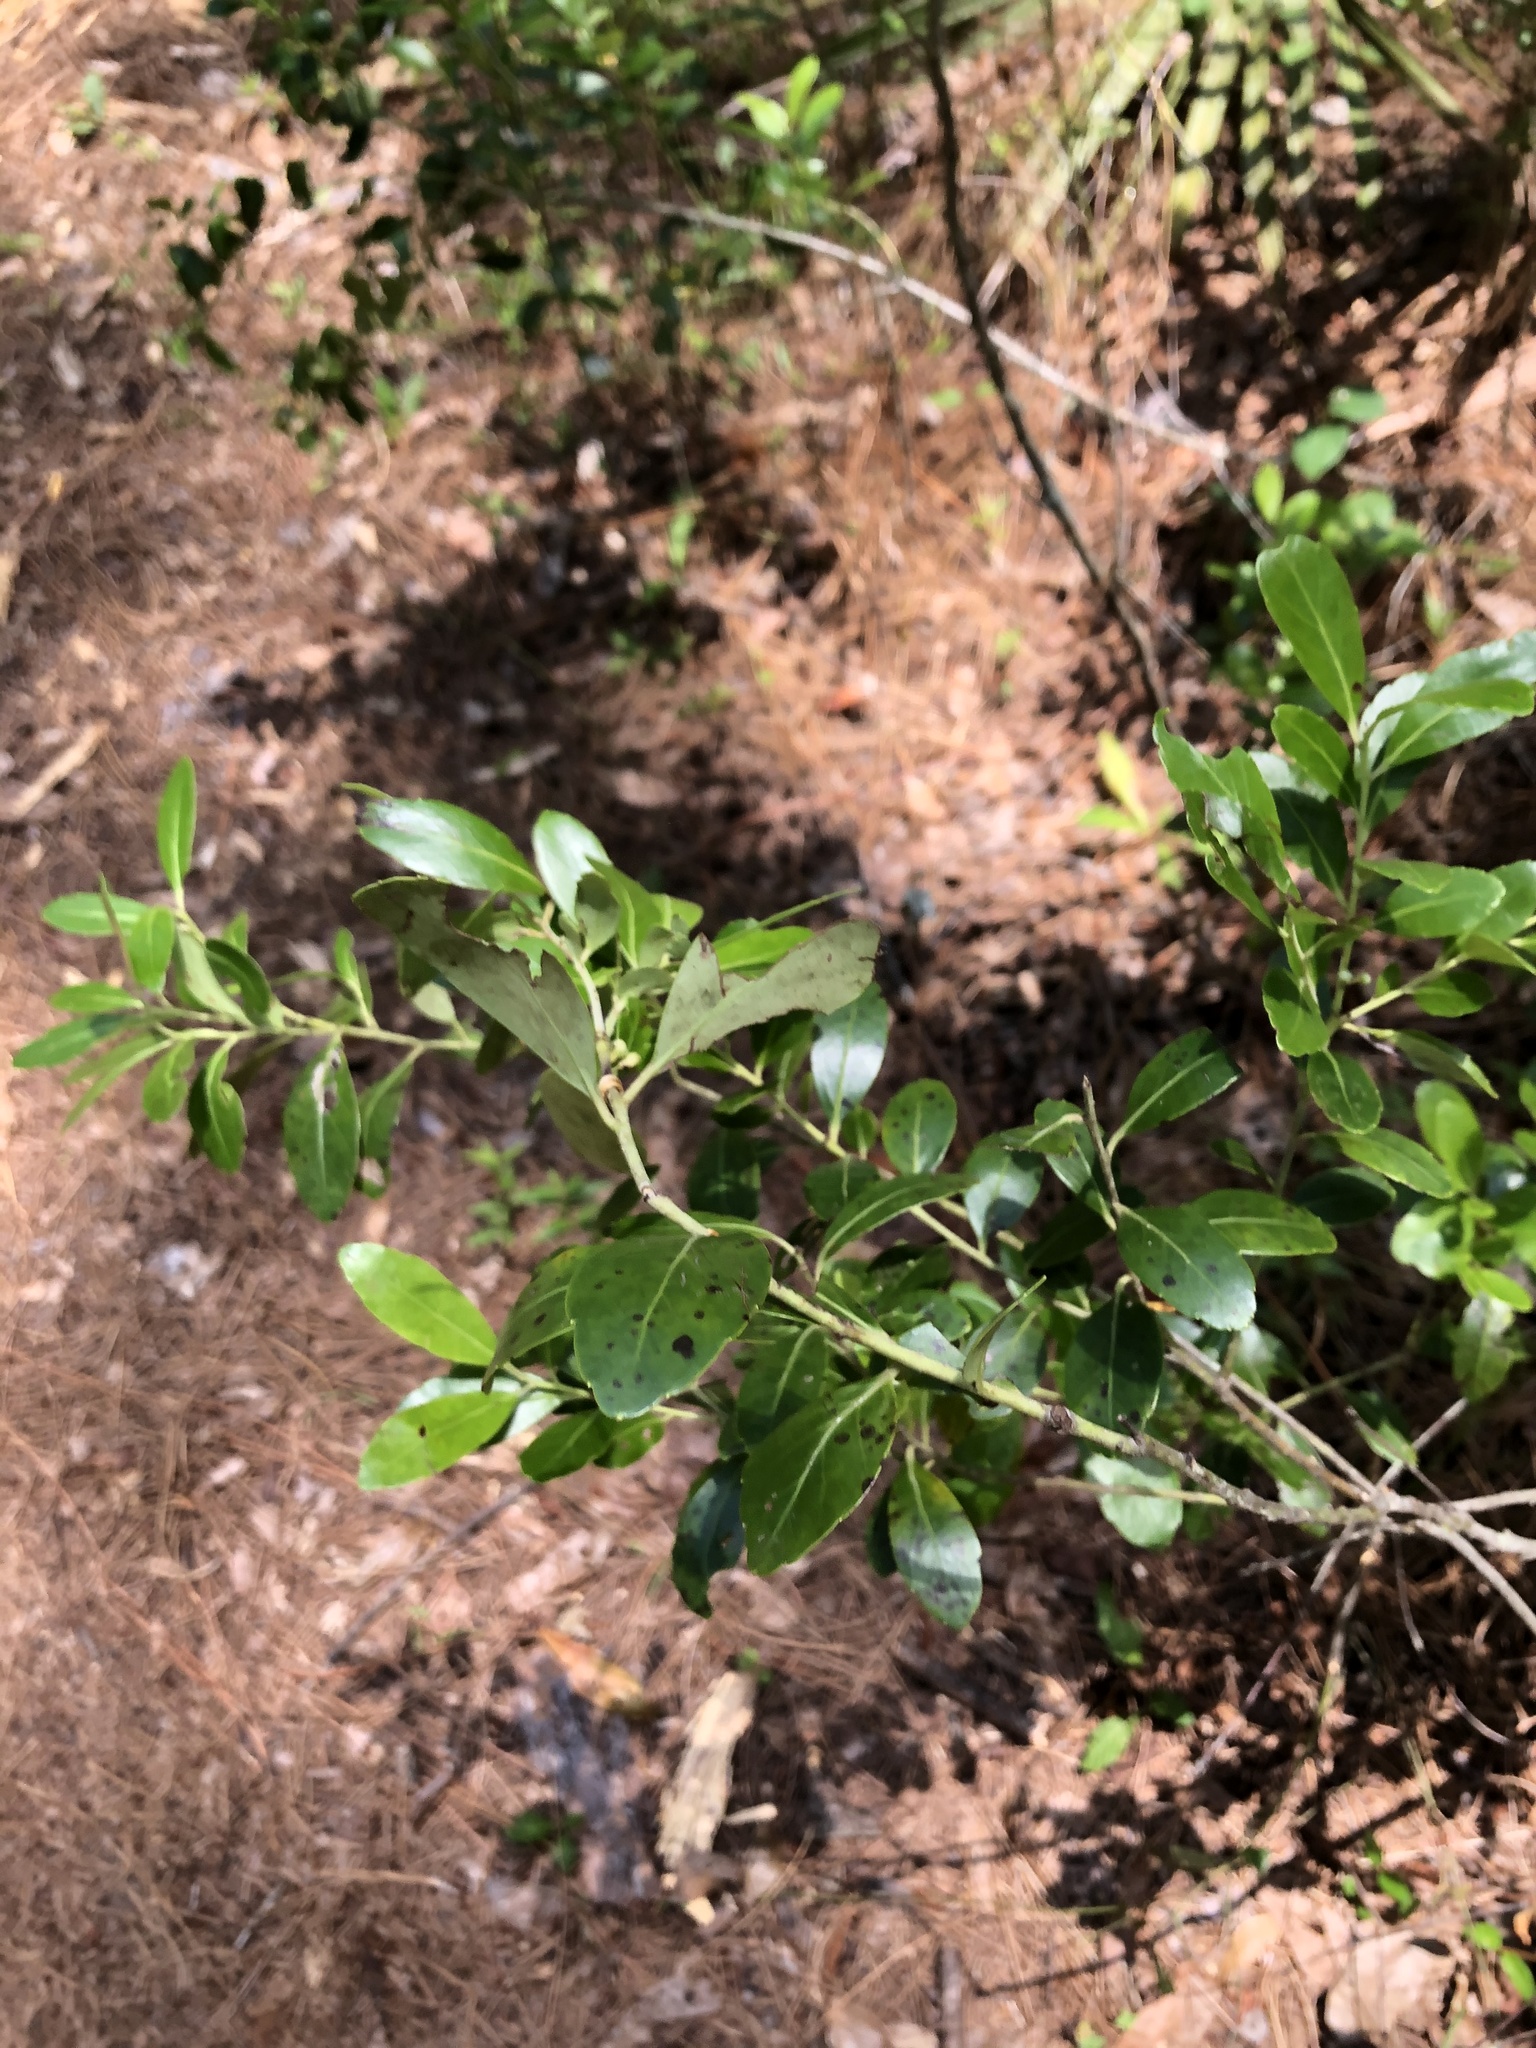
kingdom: Plantae
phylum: Tracheophyta
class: Magnoliopsida
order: Aquifoliales
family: Aquifoliaceae
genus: Ilex
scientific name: Ilex glabra
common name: Bitter gallberry
